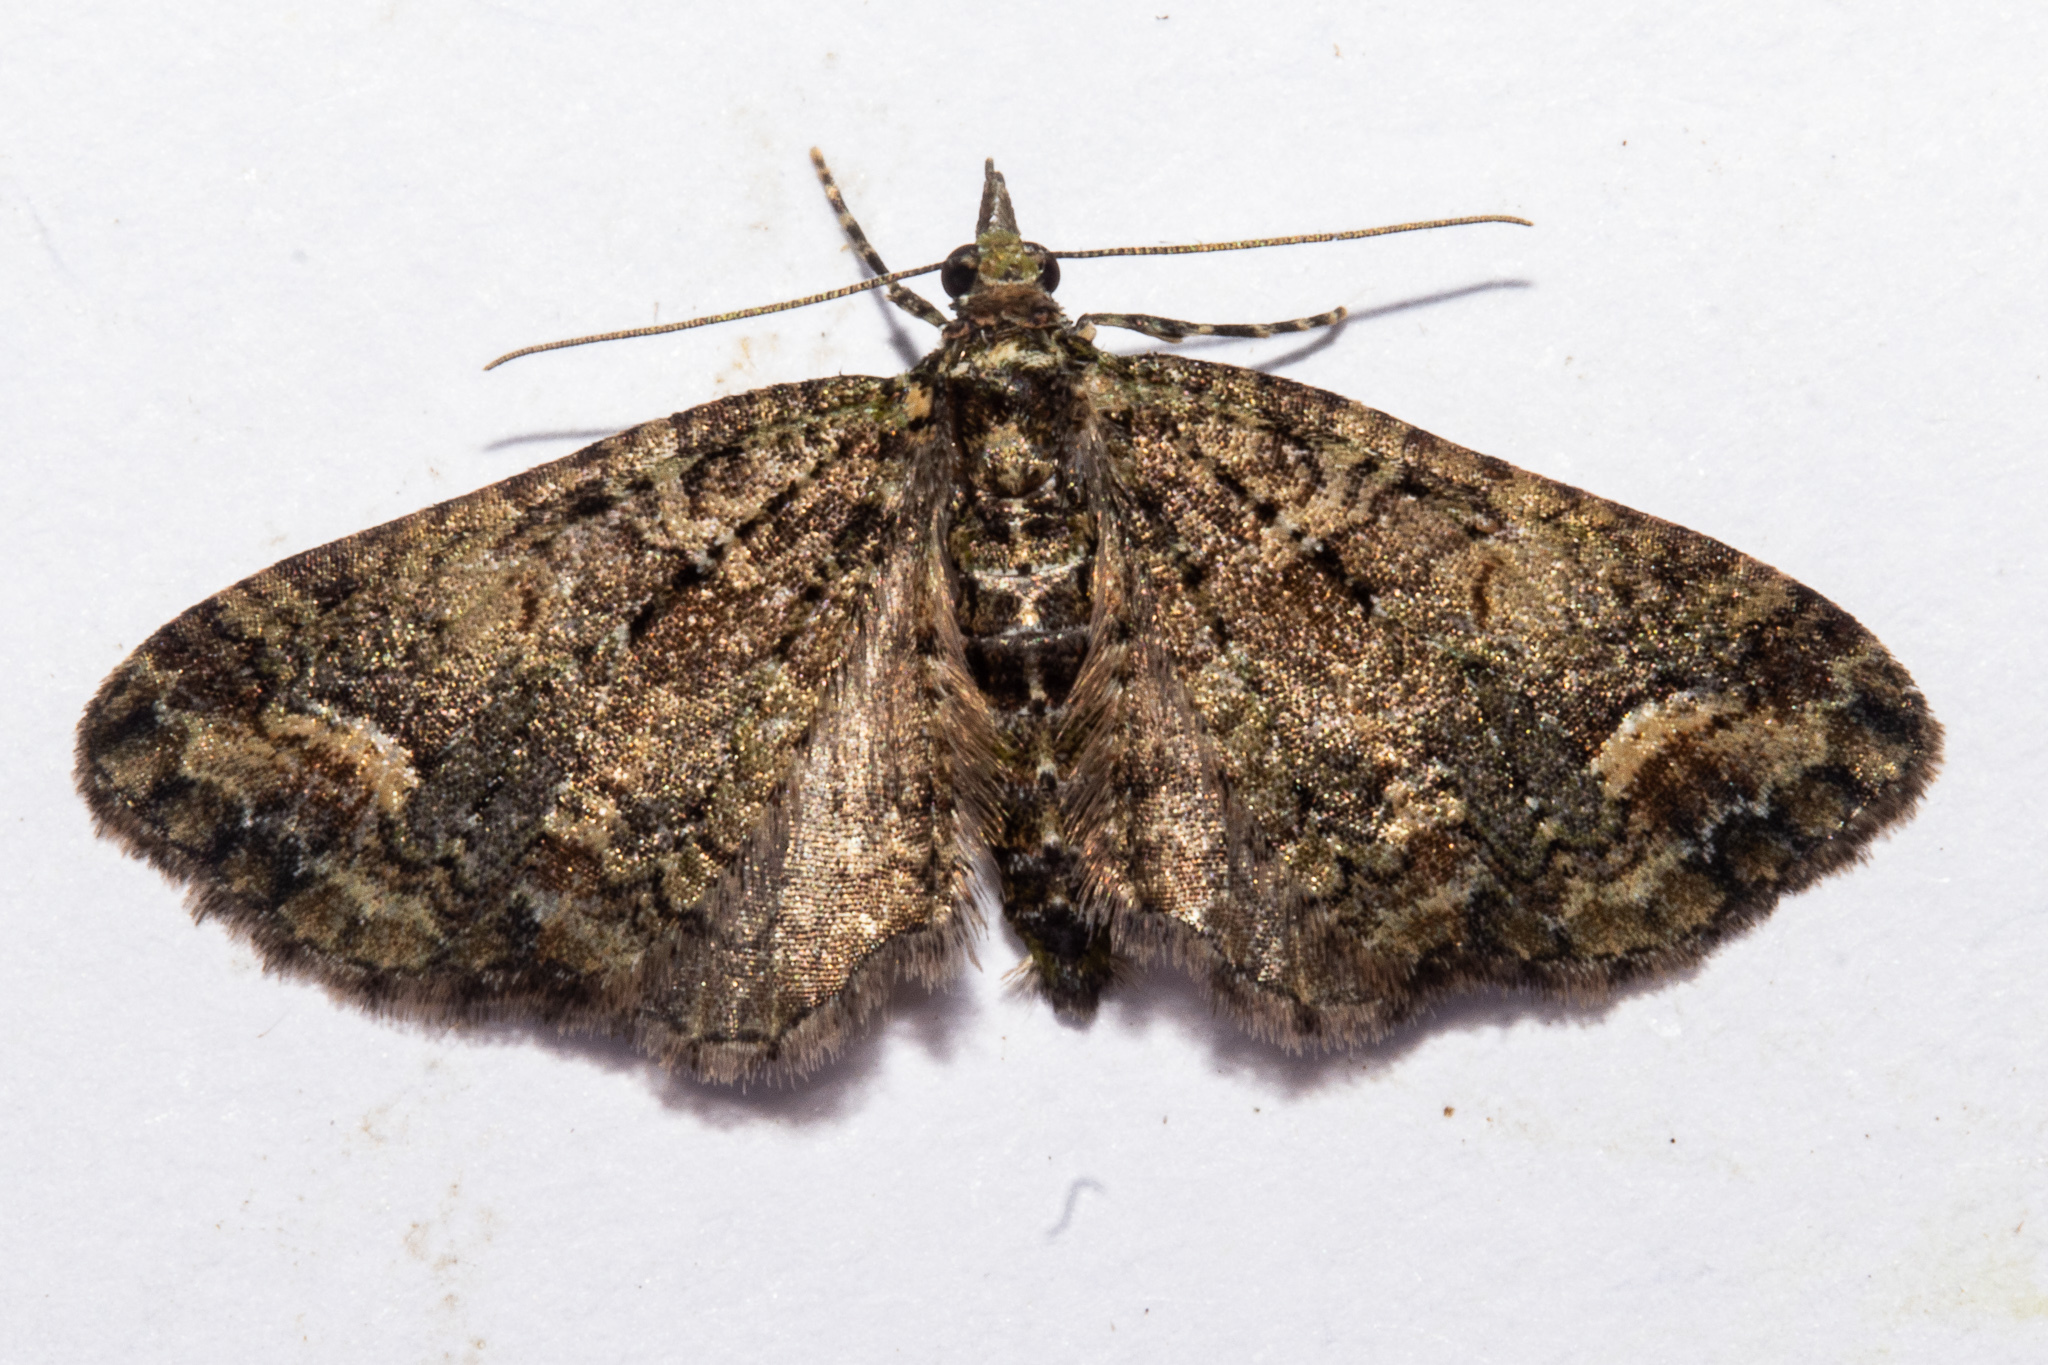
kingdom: Animalia
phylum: Arthropoda
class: Insecta
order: Lepidoptera
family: Geometridae
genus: Idaea
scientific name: Idaea mutanda
